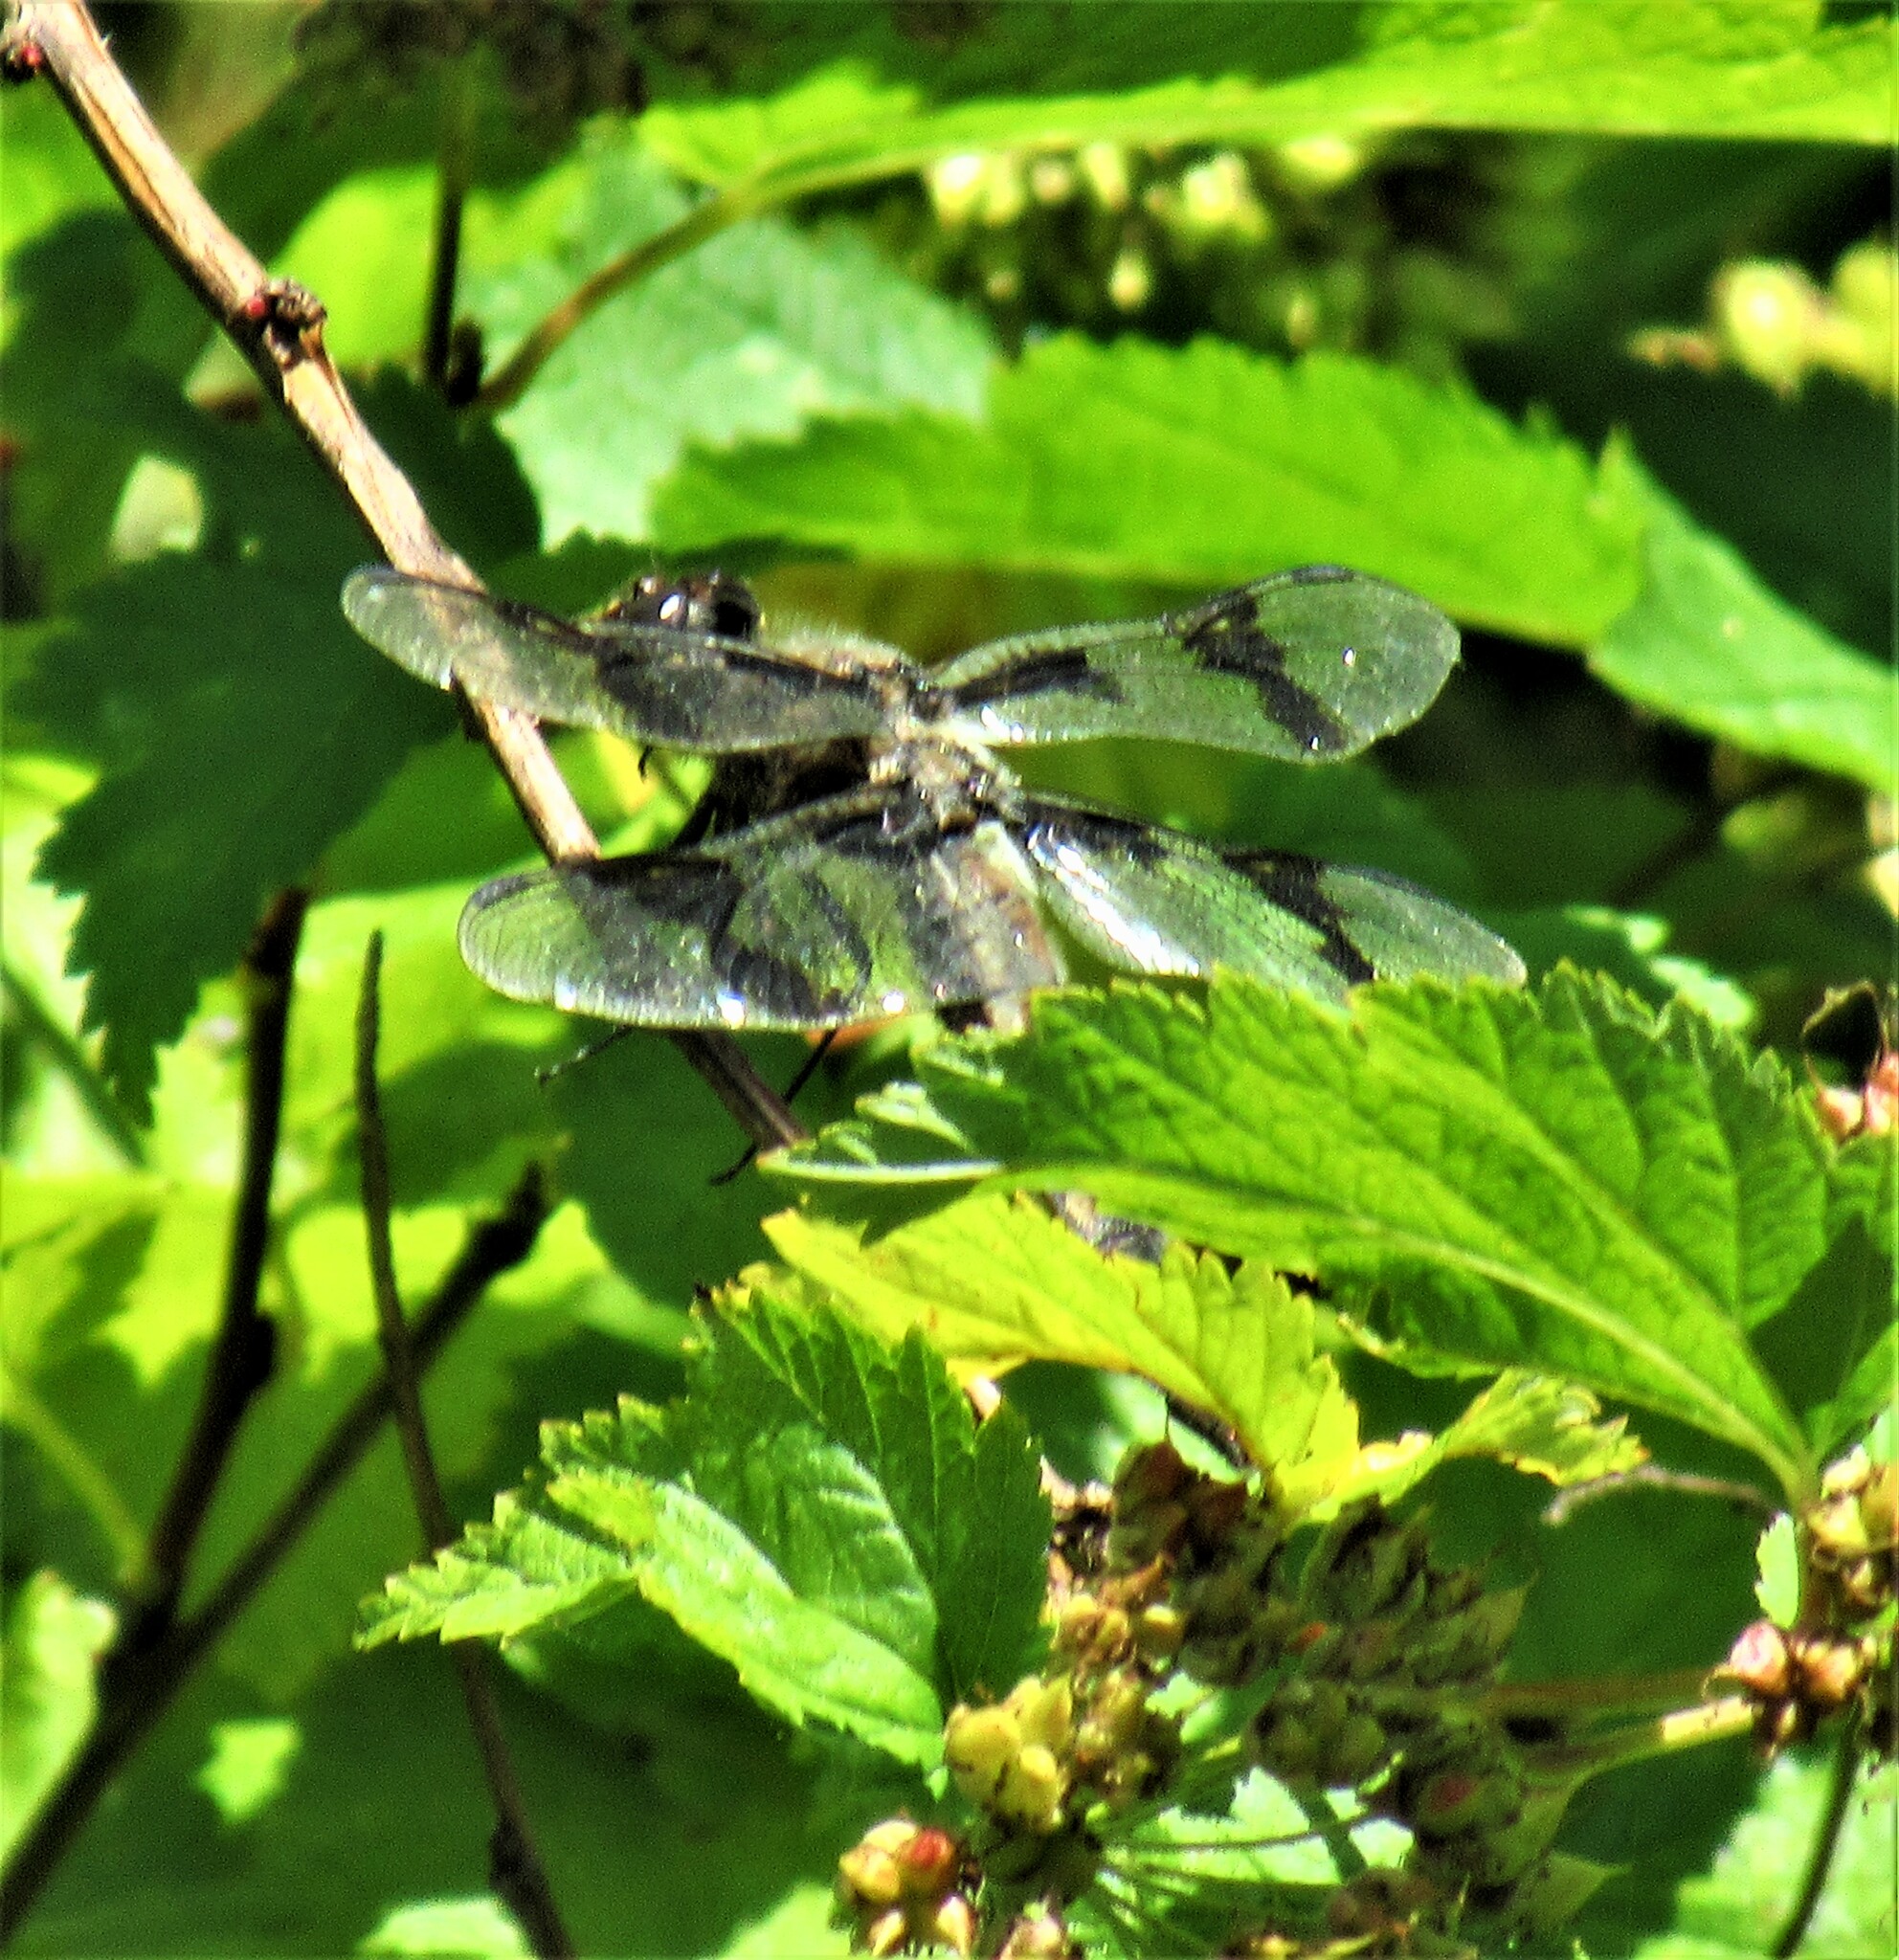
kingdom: Animalia
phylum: Arthropoda
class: Insecta
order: Odonata
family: Libellulidae
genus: Libellula
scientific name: Libellula forensis
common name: Eight-spotted skimmer
